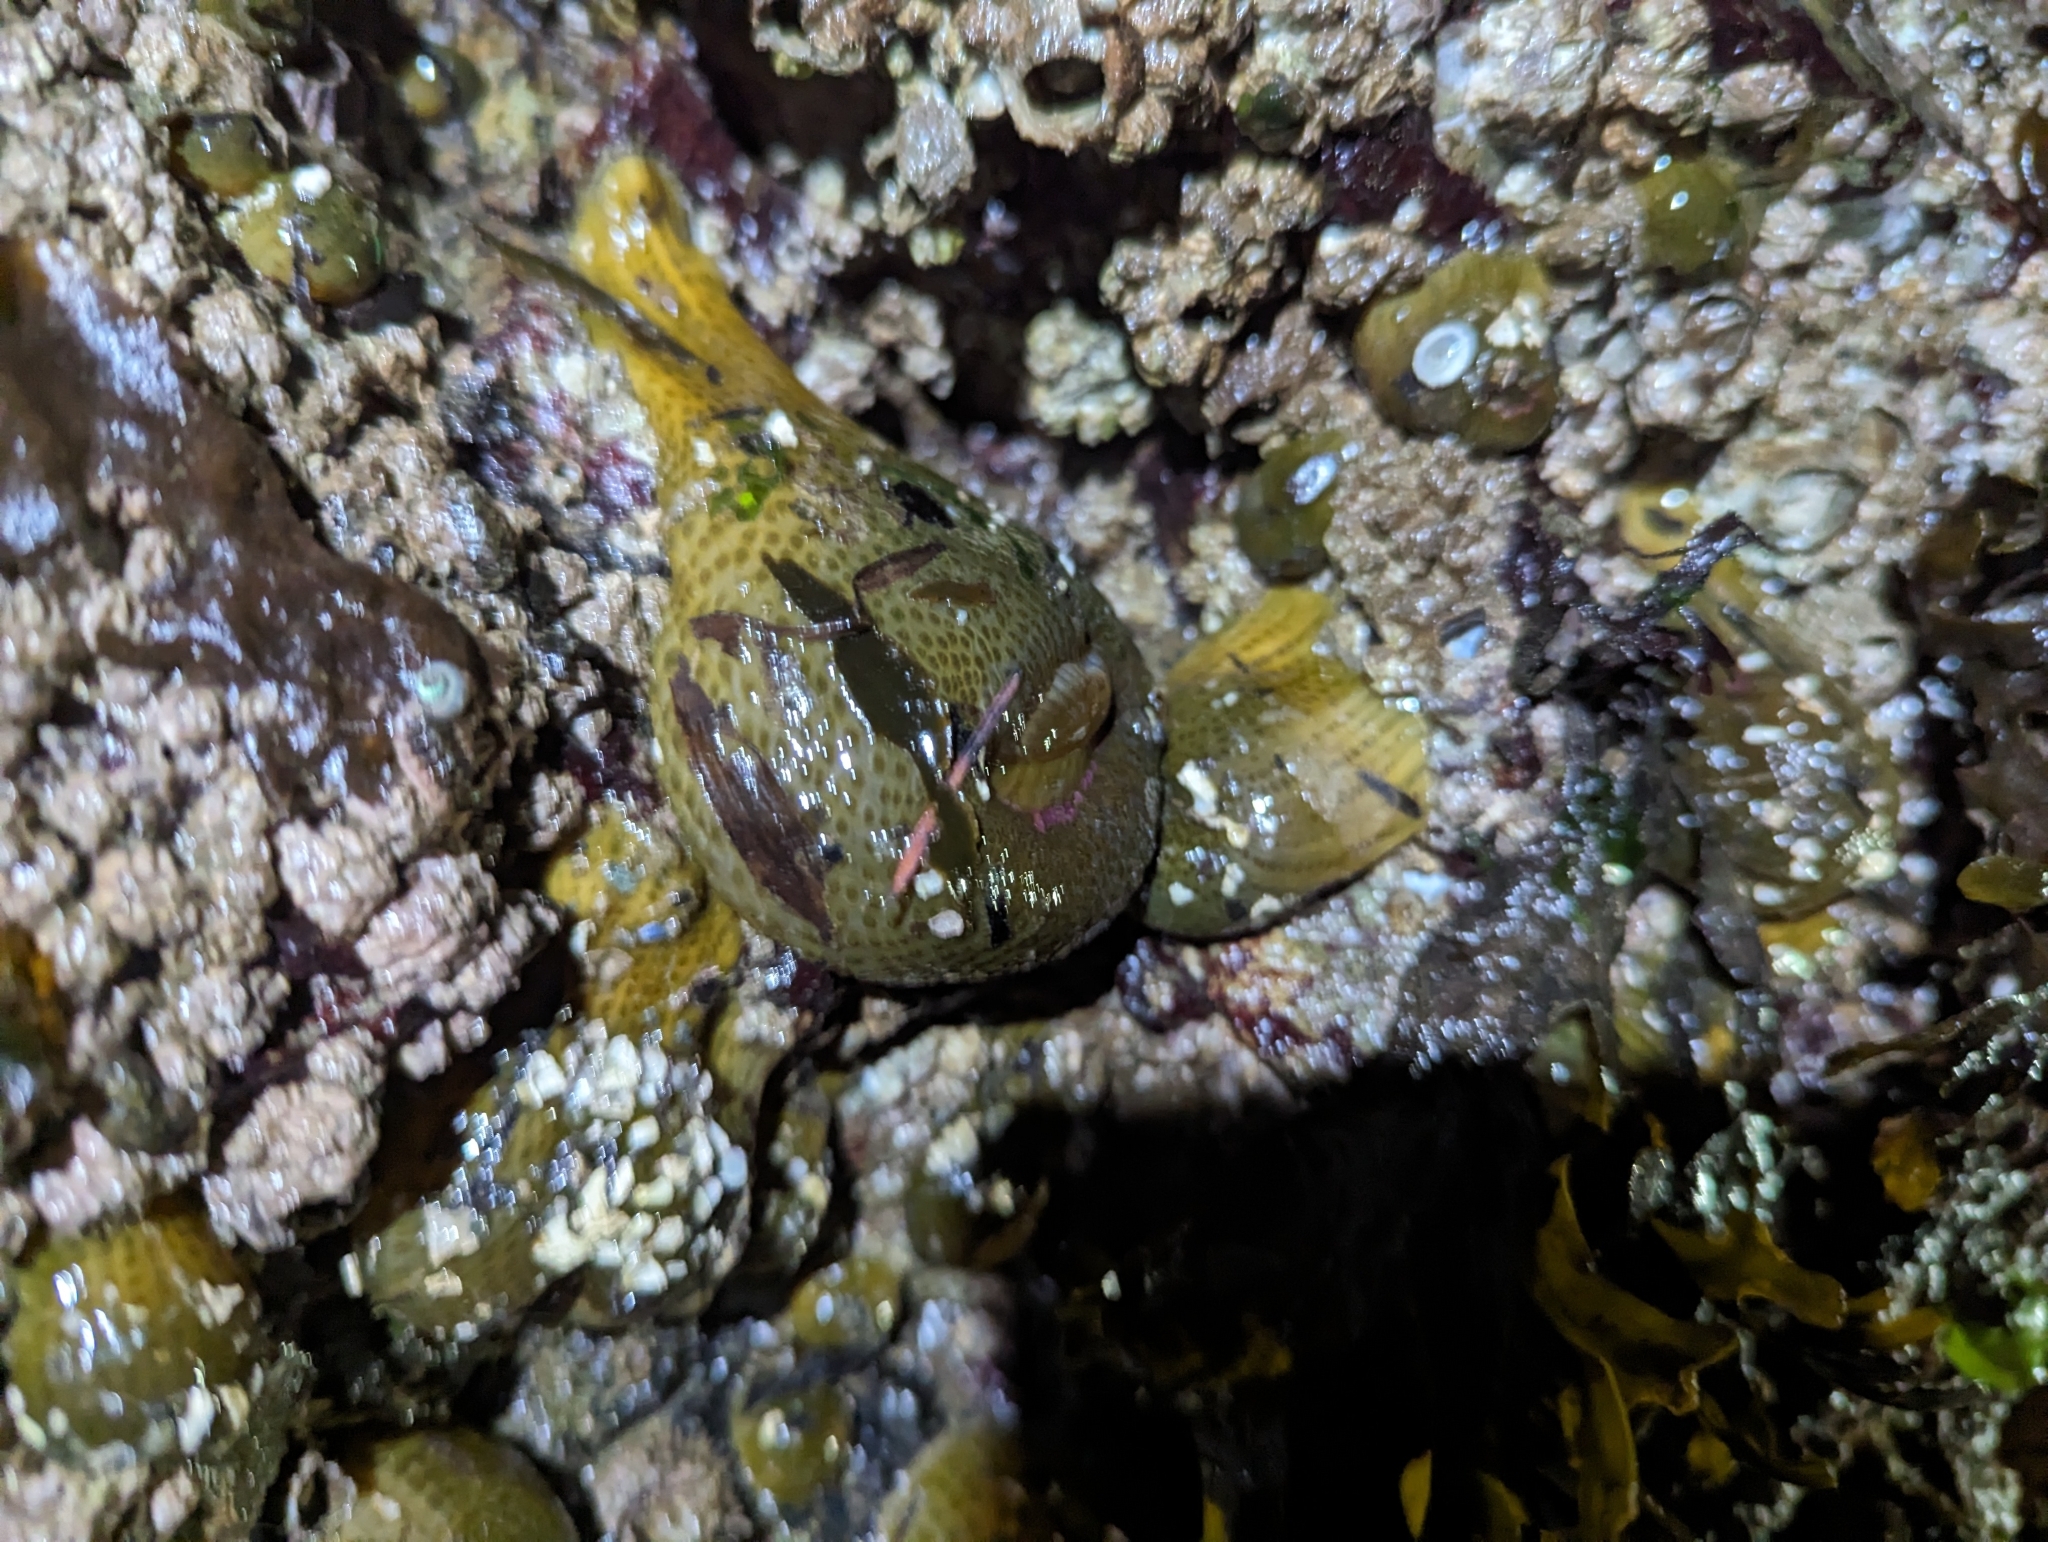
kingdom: Animalia
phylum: Cnidaria
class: Anthozoa
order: Actiniaria
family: Actiniidae
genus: Anthopleura
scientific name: Anthopleura elegantissima
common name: Clonal anemone
